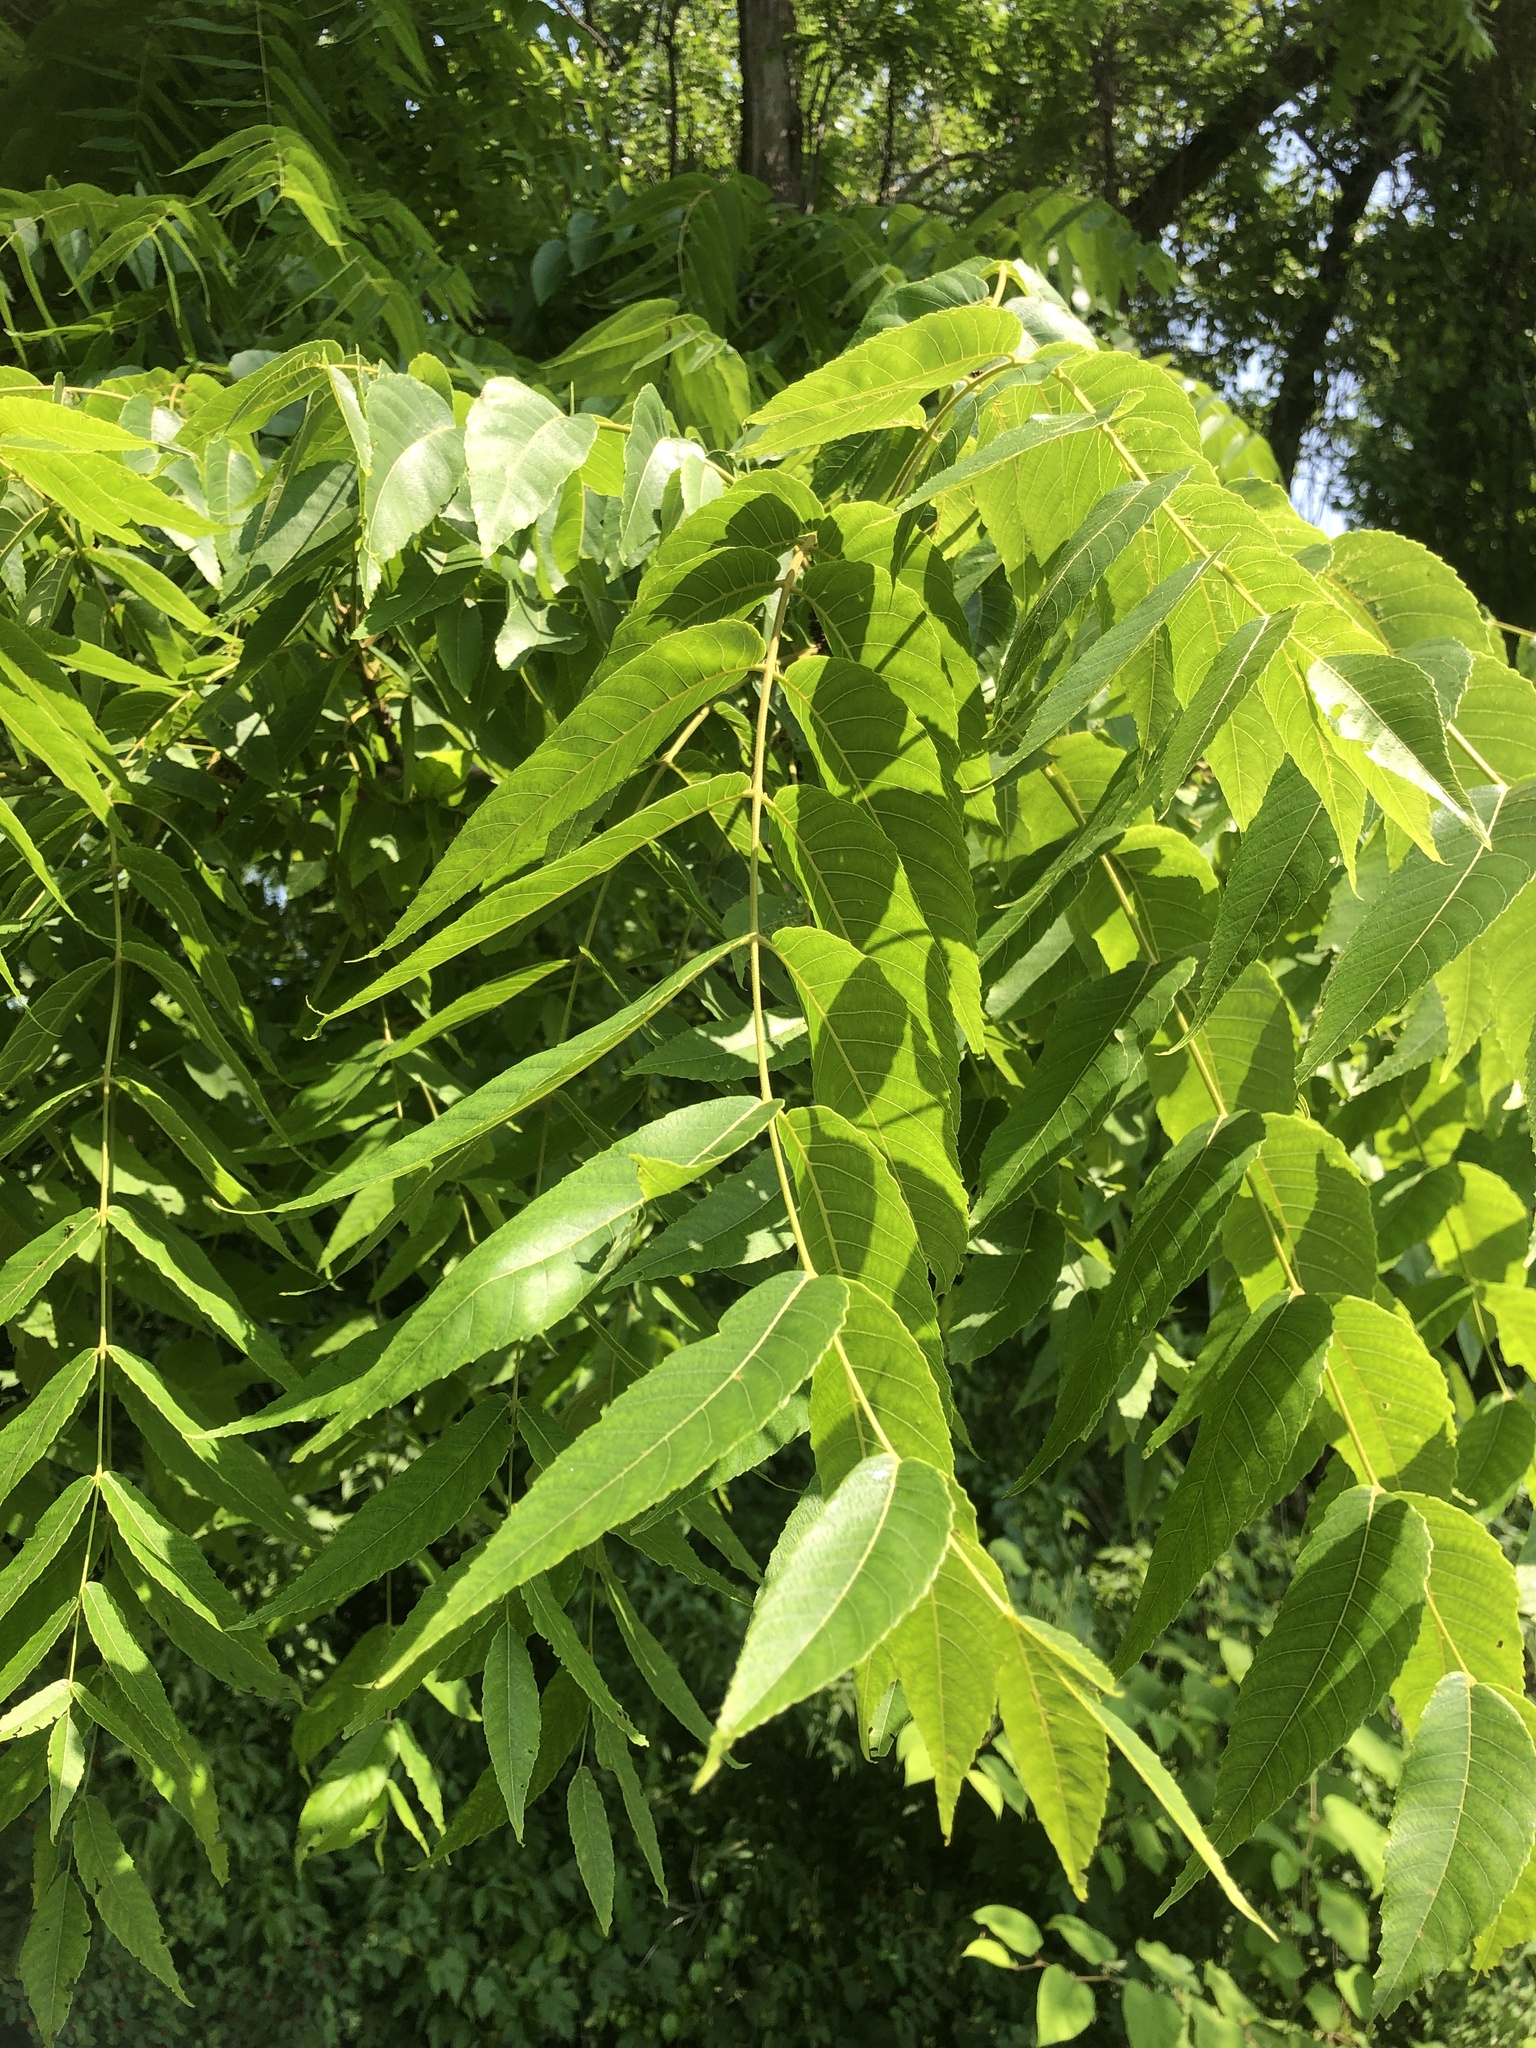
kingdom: Plantae
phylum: Tracheophyta
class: Magnoliopsida
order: Fagales
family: Juglandaceae
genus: Juglans
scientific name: Juglans nigra
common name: Black walnut
